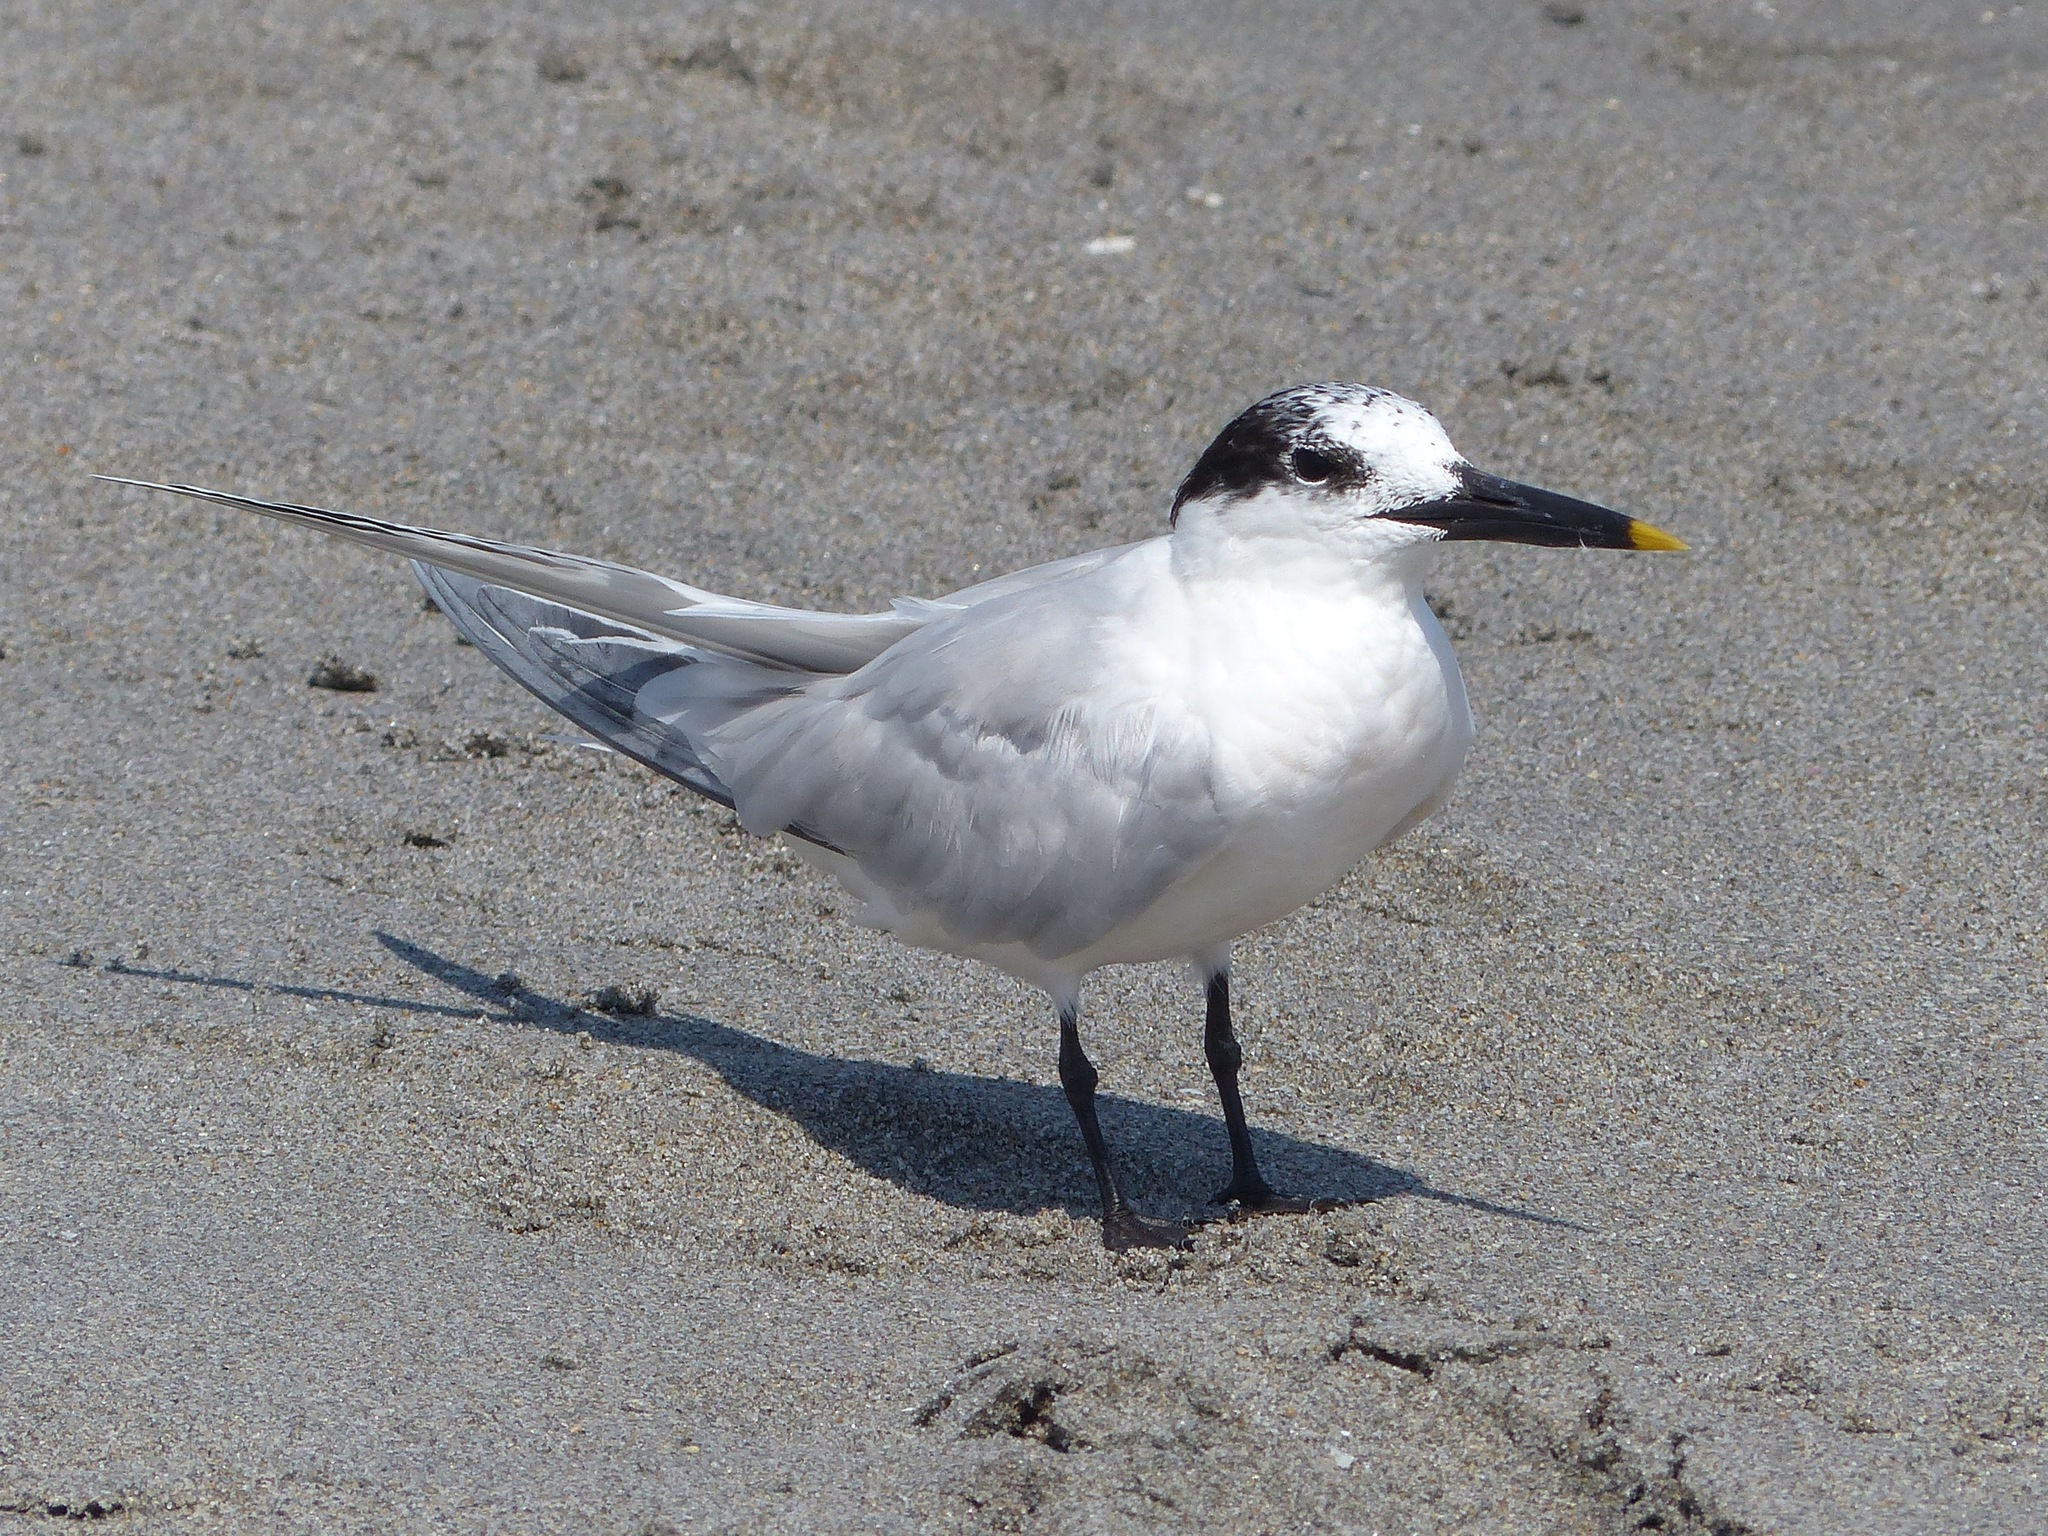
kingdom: Animalia
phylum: Chordata
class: Aves
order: Charadriiformes
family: Laridae
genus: Thalasseus
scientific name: Thalasseus sandvicensis
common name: Sandwich tern
